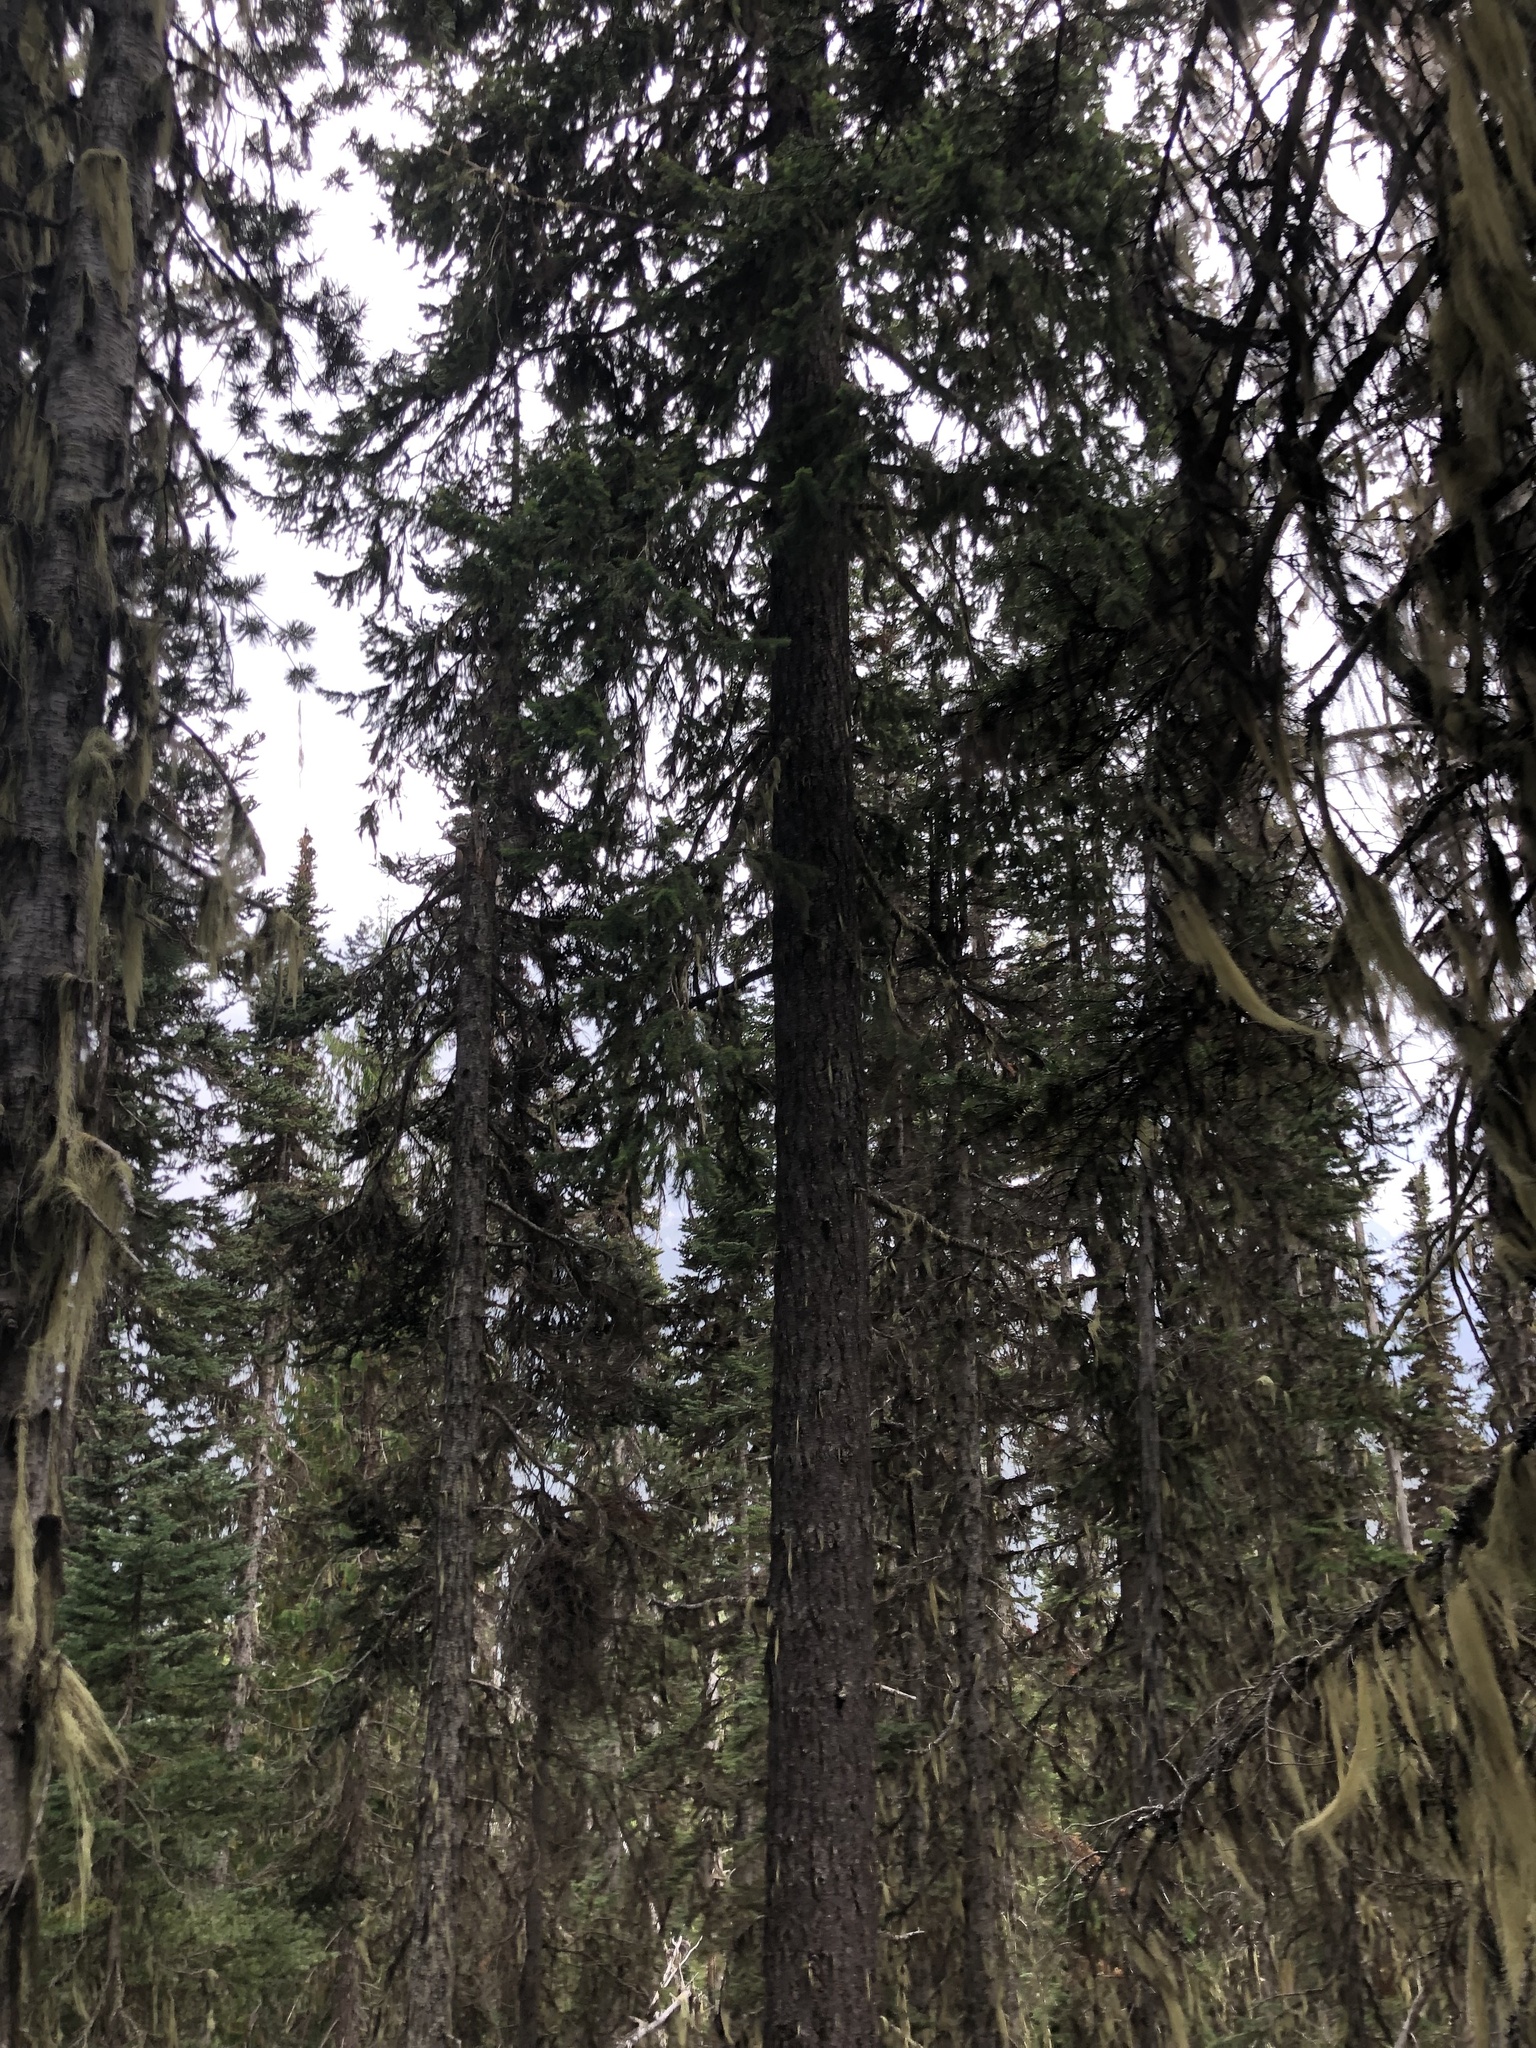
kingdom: Plantae
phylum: Tracheophyta
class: Pinopsida
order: Pinales
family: Pinaceae
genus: Pseudotsuga
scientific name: Pseudotsuga menziesii
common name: Douglas fir
